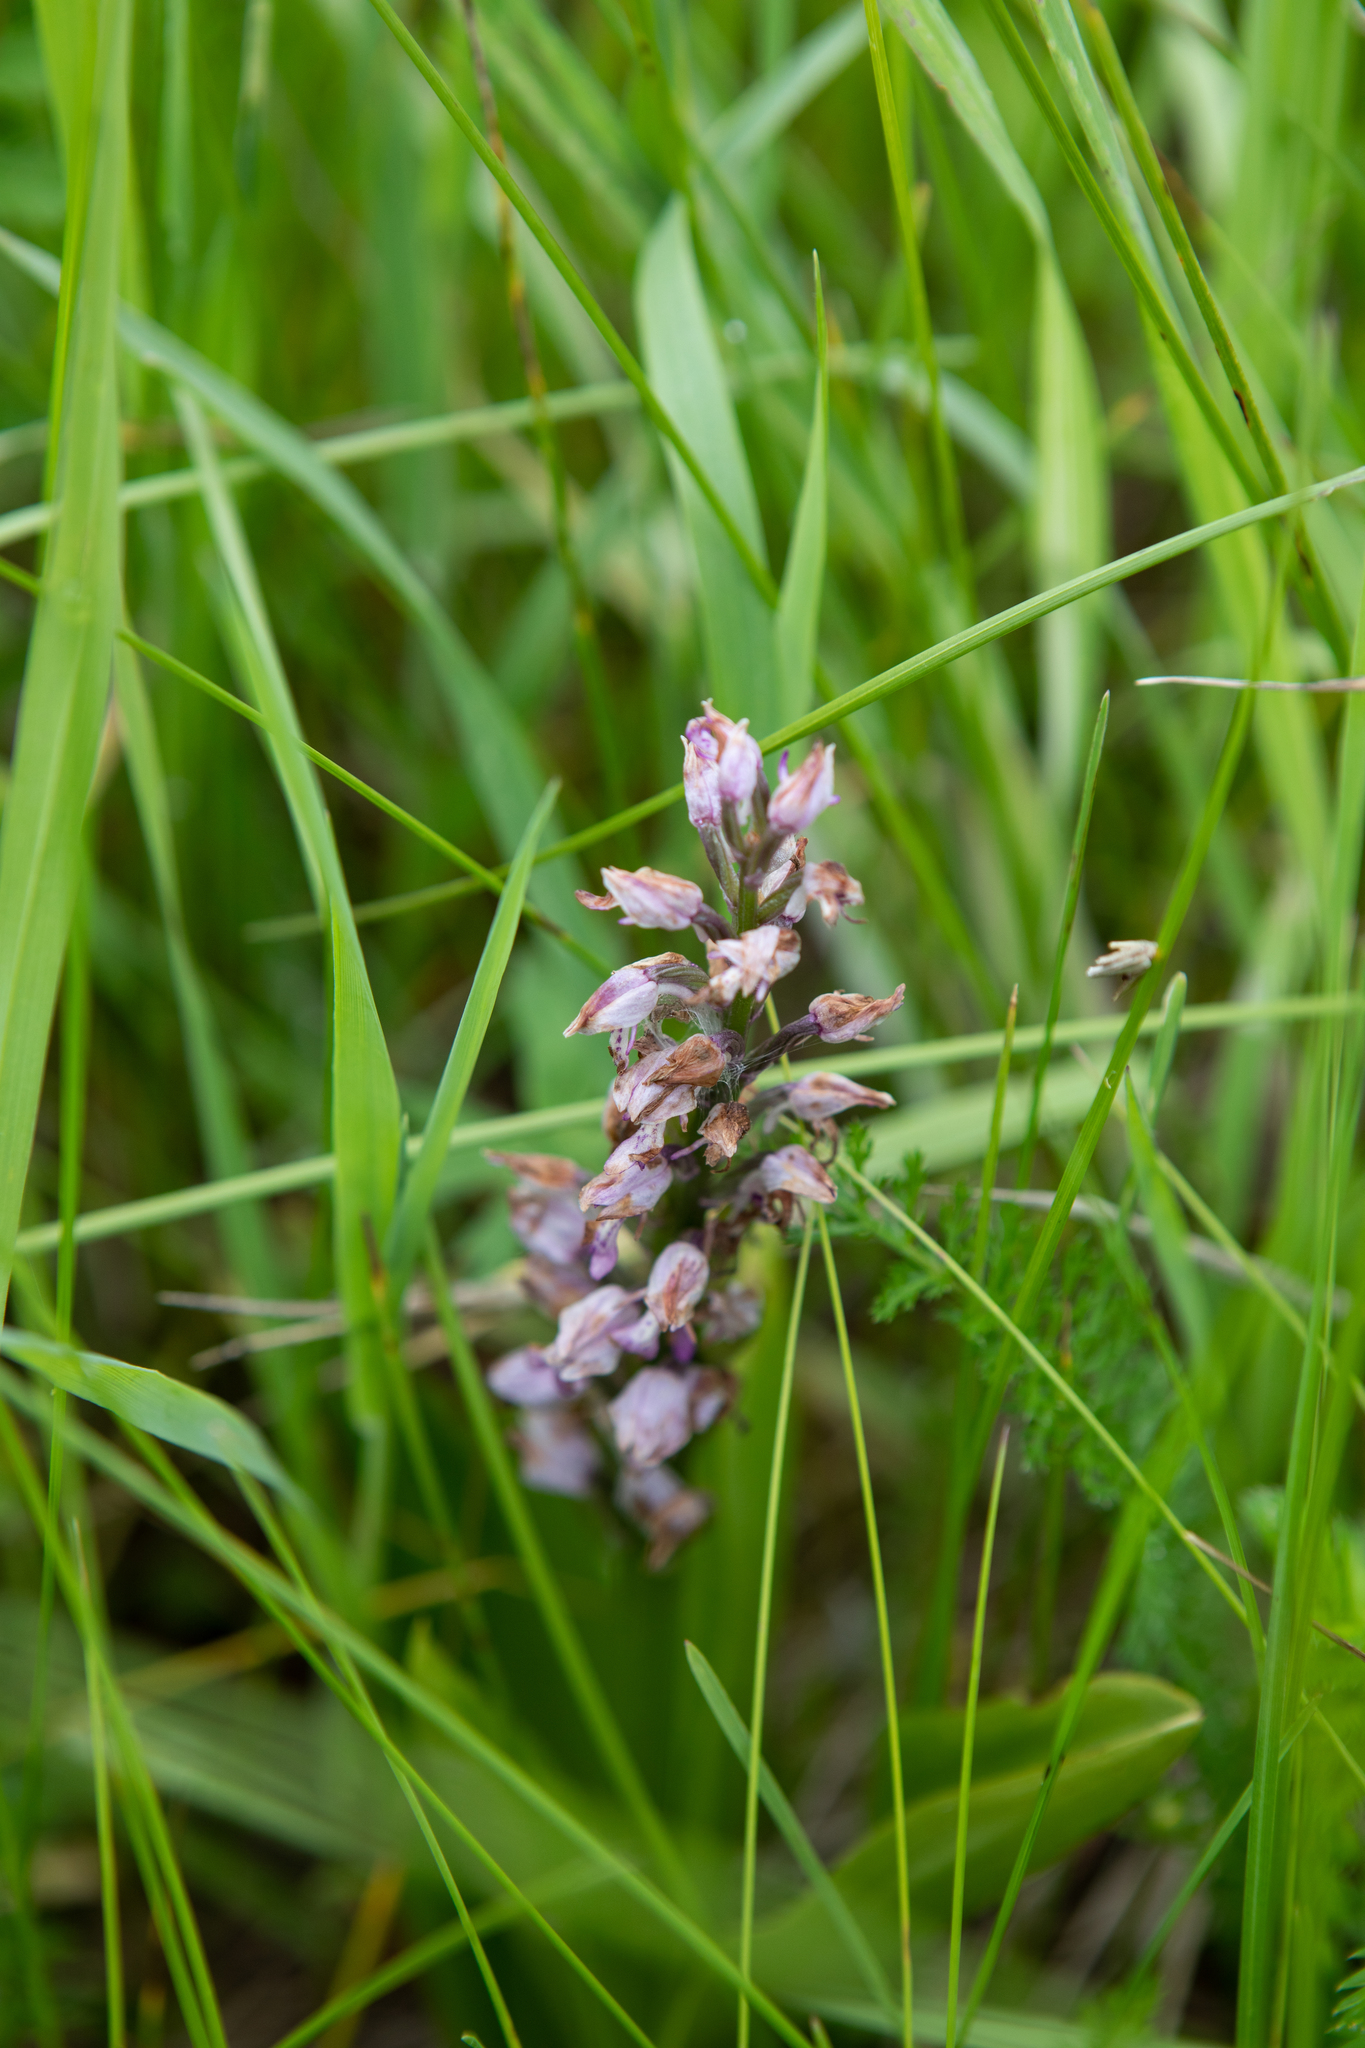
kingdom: Plantae
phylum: Tracheophyta
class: Liliopsida
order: Asparagales
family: Orchidaceae
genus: Orchis
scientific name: Orchis militaris
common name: Military orchid
